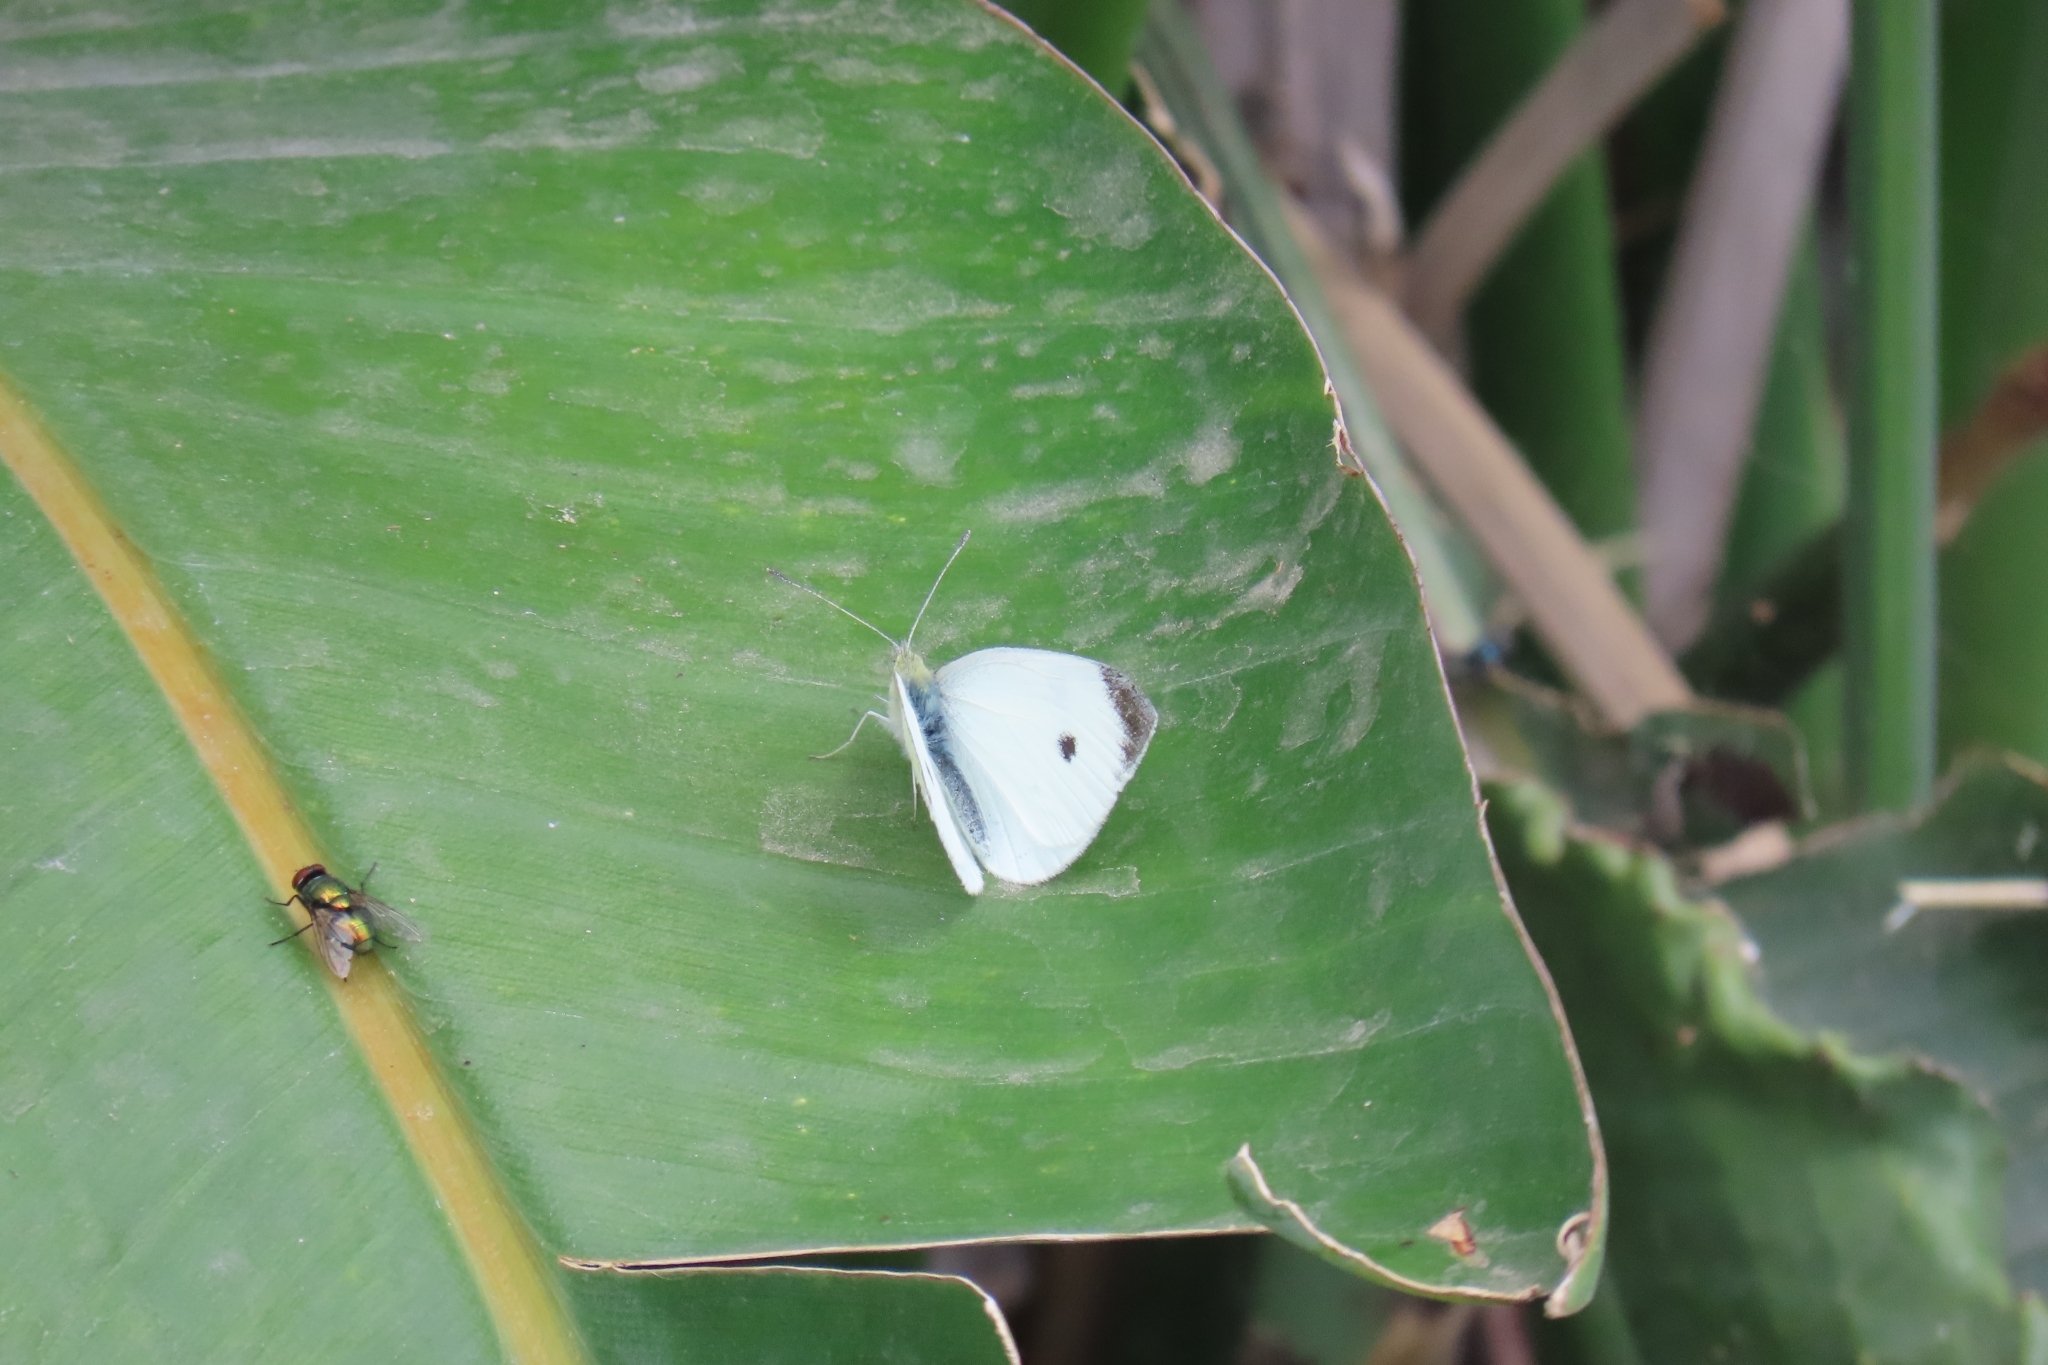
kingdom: Animalia
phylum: Arthropoda
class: Insecta
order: Lepidoptera
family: Pieridae
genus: Pieris
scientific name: Pieris rapae
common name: Small white
